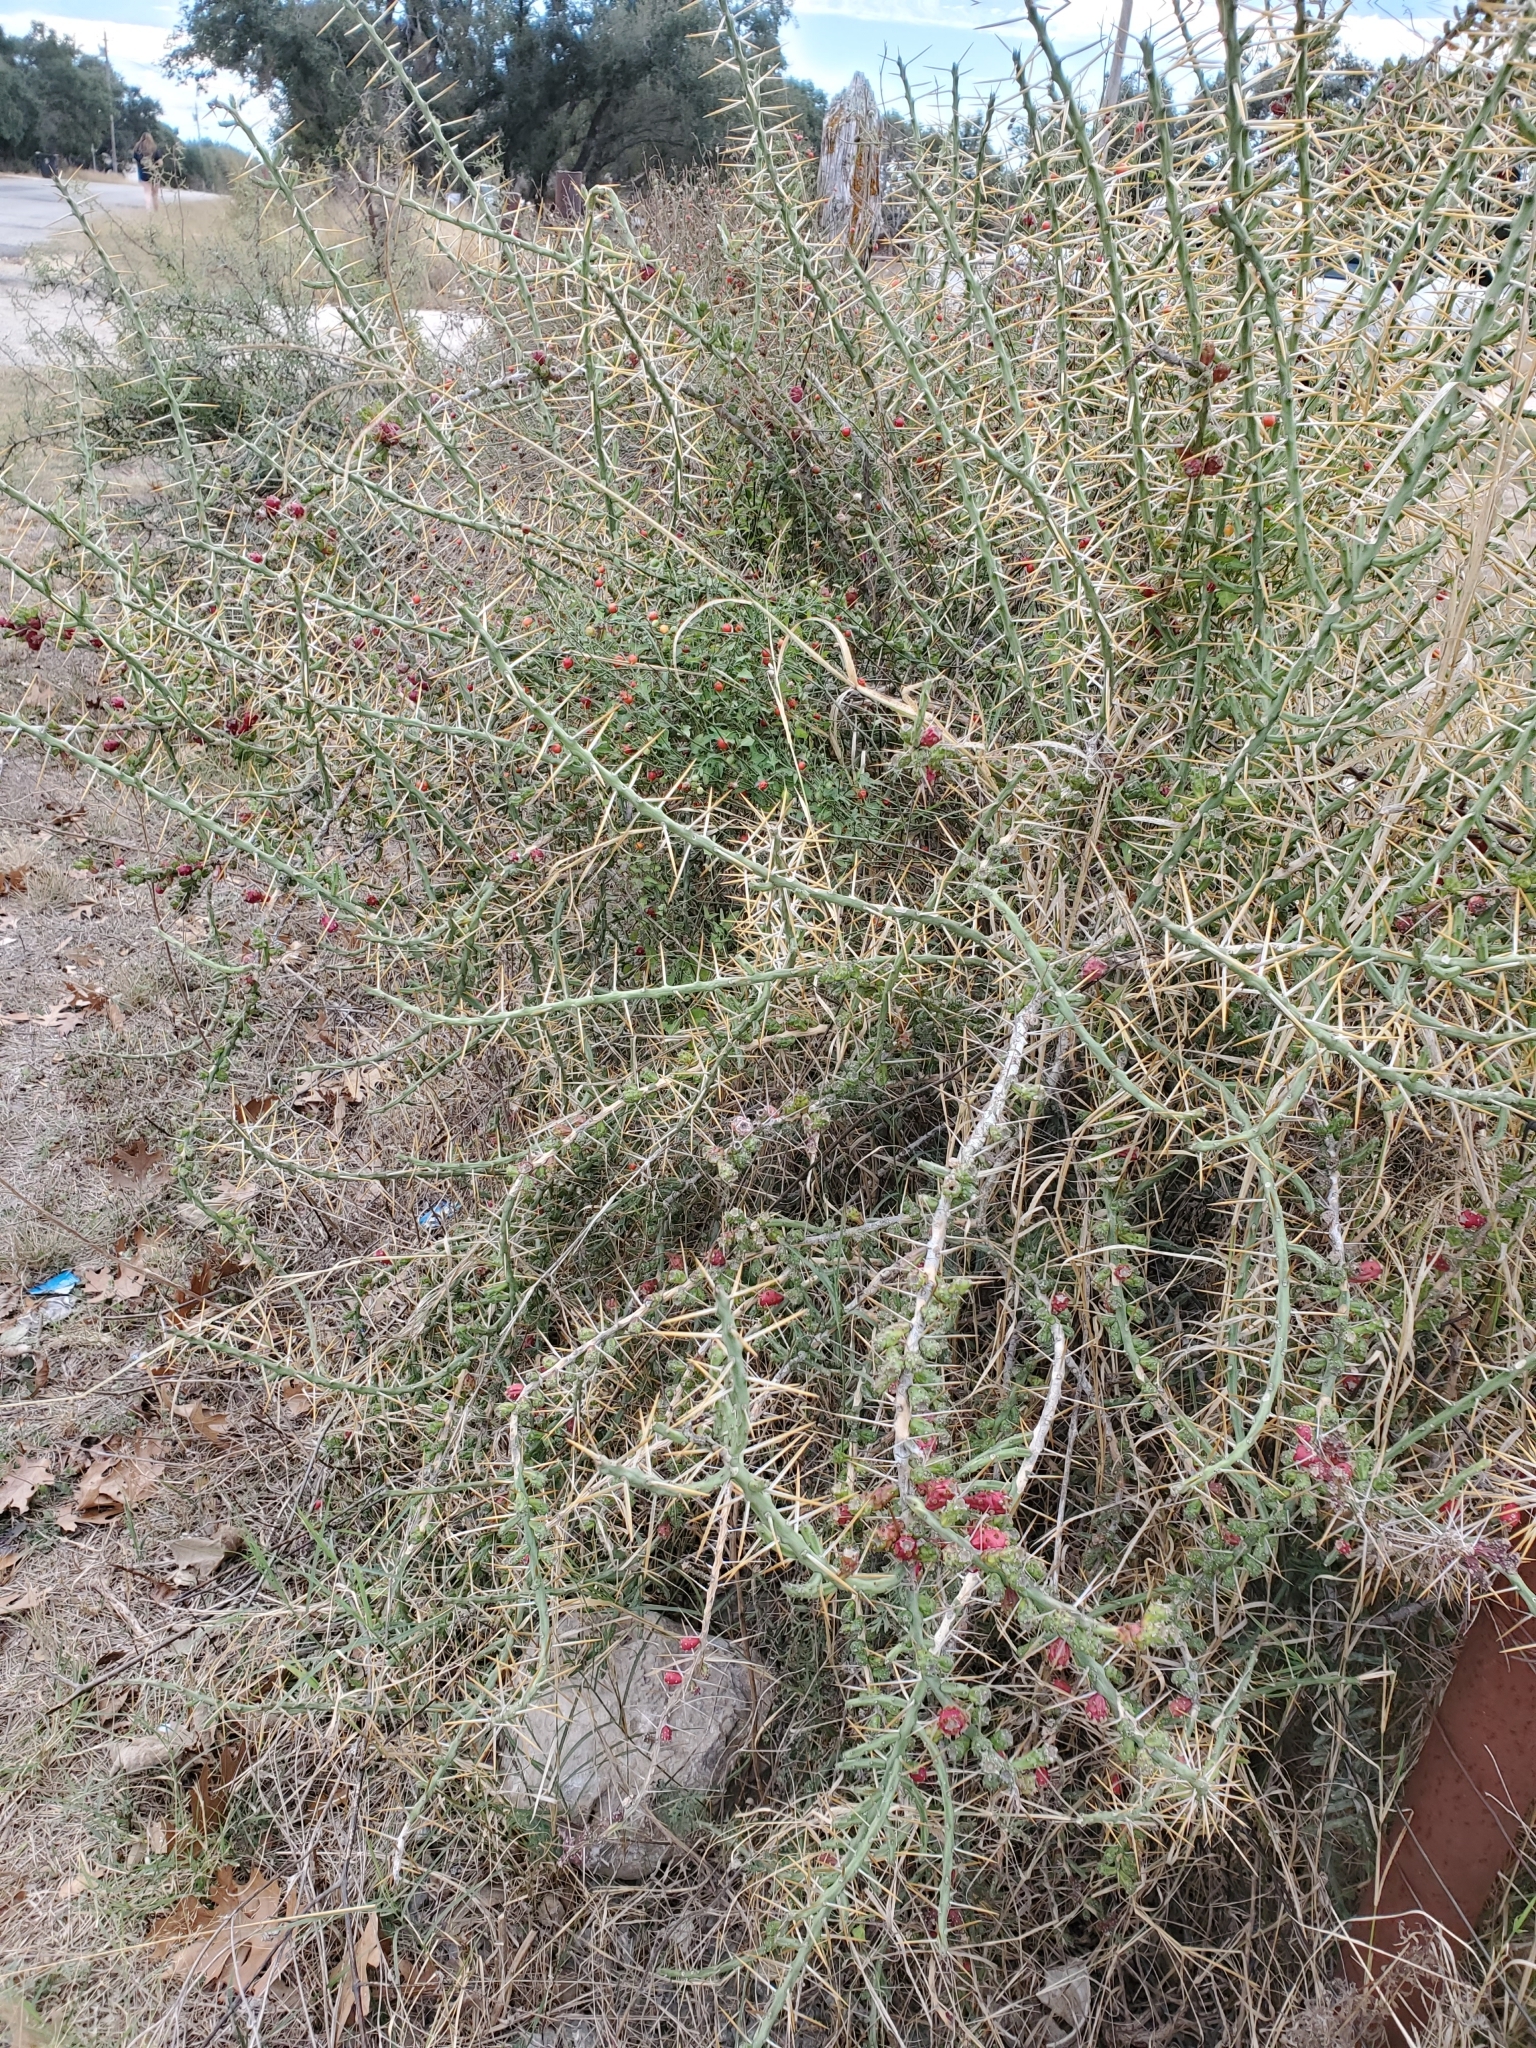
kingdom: Plantae
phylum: Tracheophyta
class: Magnoliopsida
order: Caryophyllales
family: Cactaceae
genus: Cylindropuntia
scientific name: Cylindropuntia leptocaulis
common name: Christmas cactus
